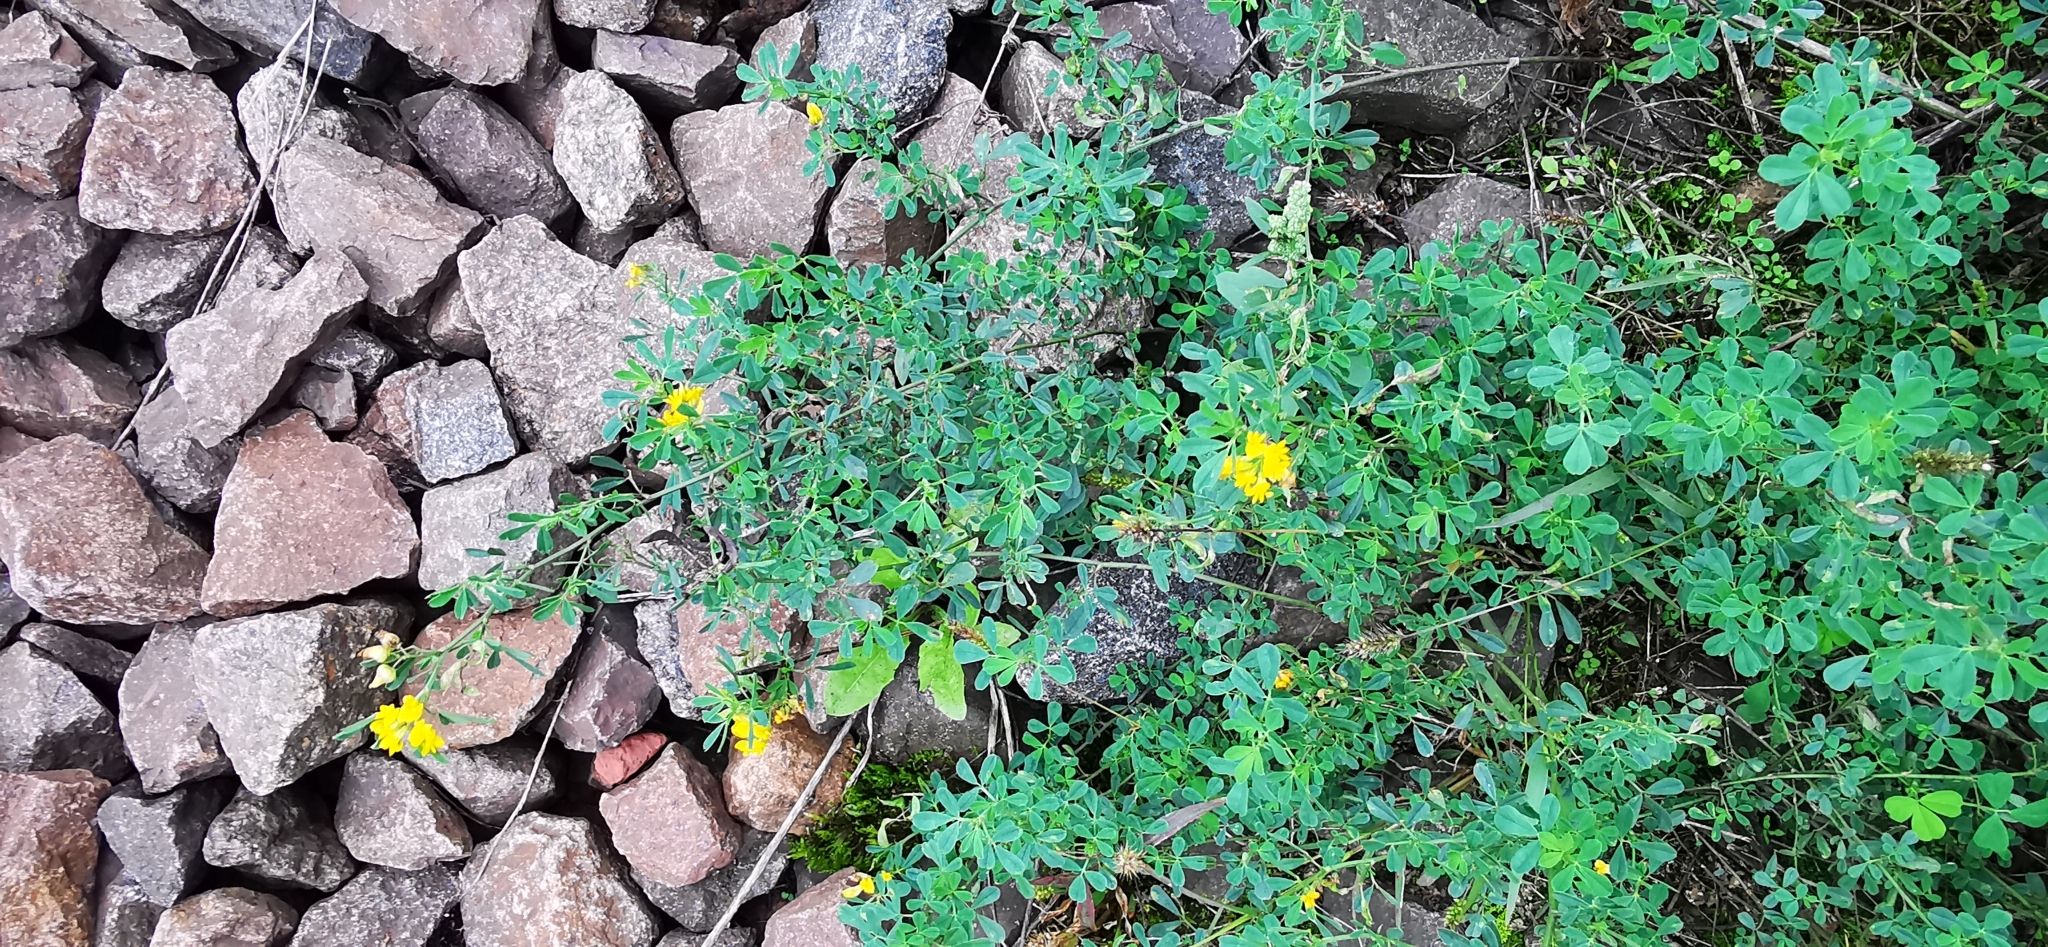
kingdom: Plantae
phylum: Tracheophyta
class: Magnoliopsida
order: Fabales
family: Fabaceae
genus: Medicago
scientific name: Medicago falcata
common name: Sickle medick
